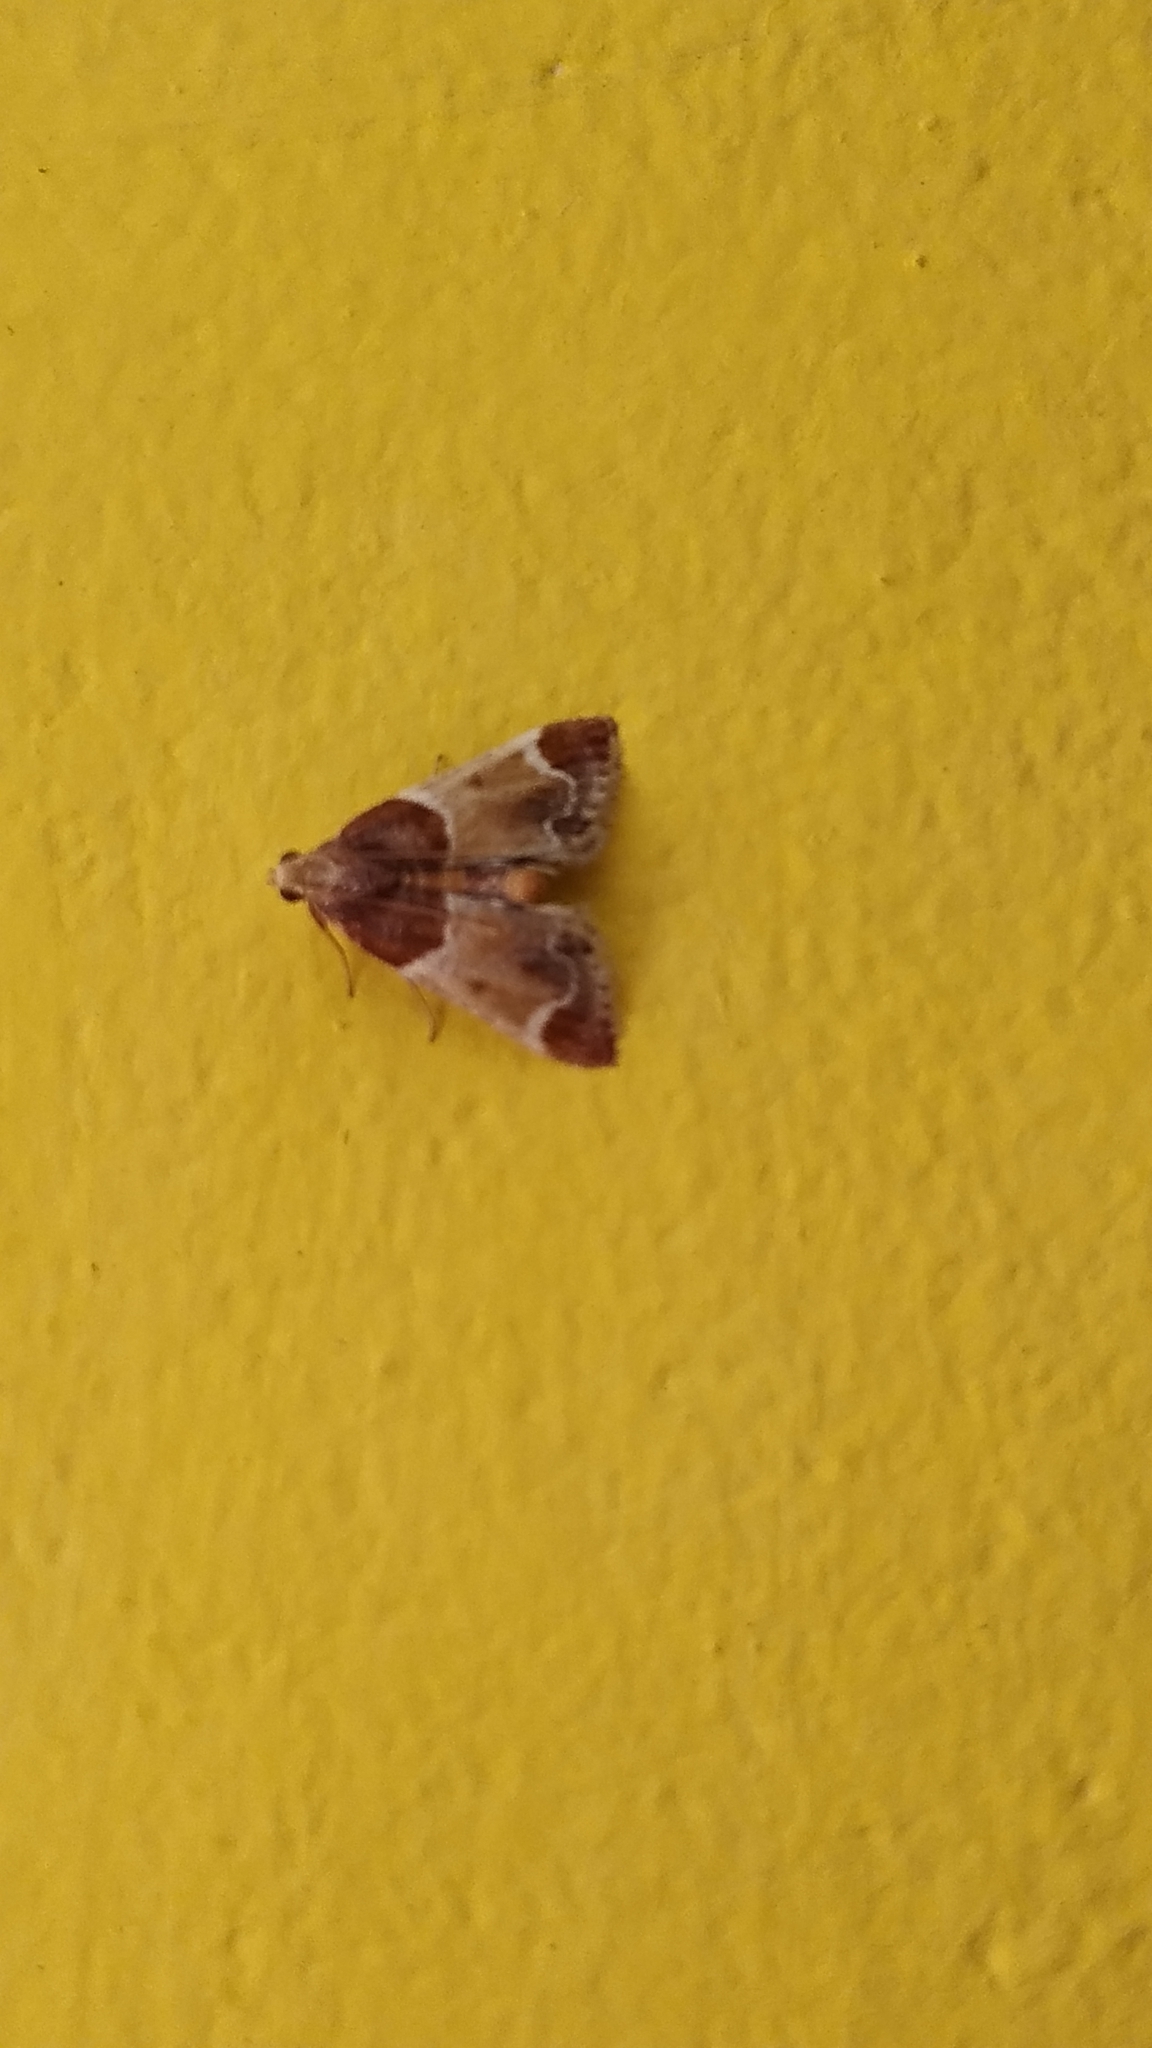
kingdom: Animalia
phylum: Arthropoda
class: Insecta
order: Lepidoptera
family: Pyralidae
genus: Pyralis
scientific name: Pyralis farinalis
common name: Meal moth
